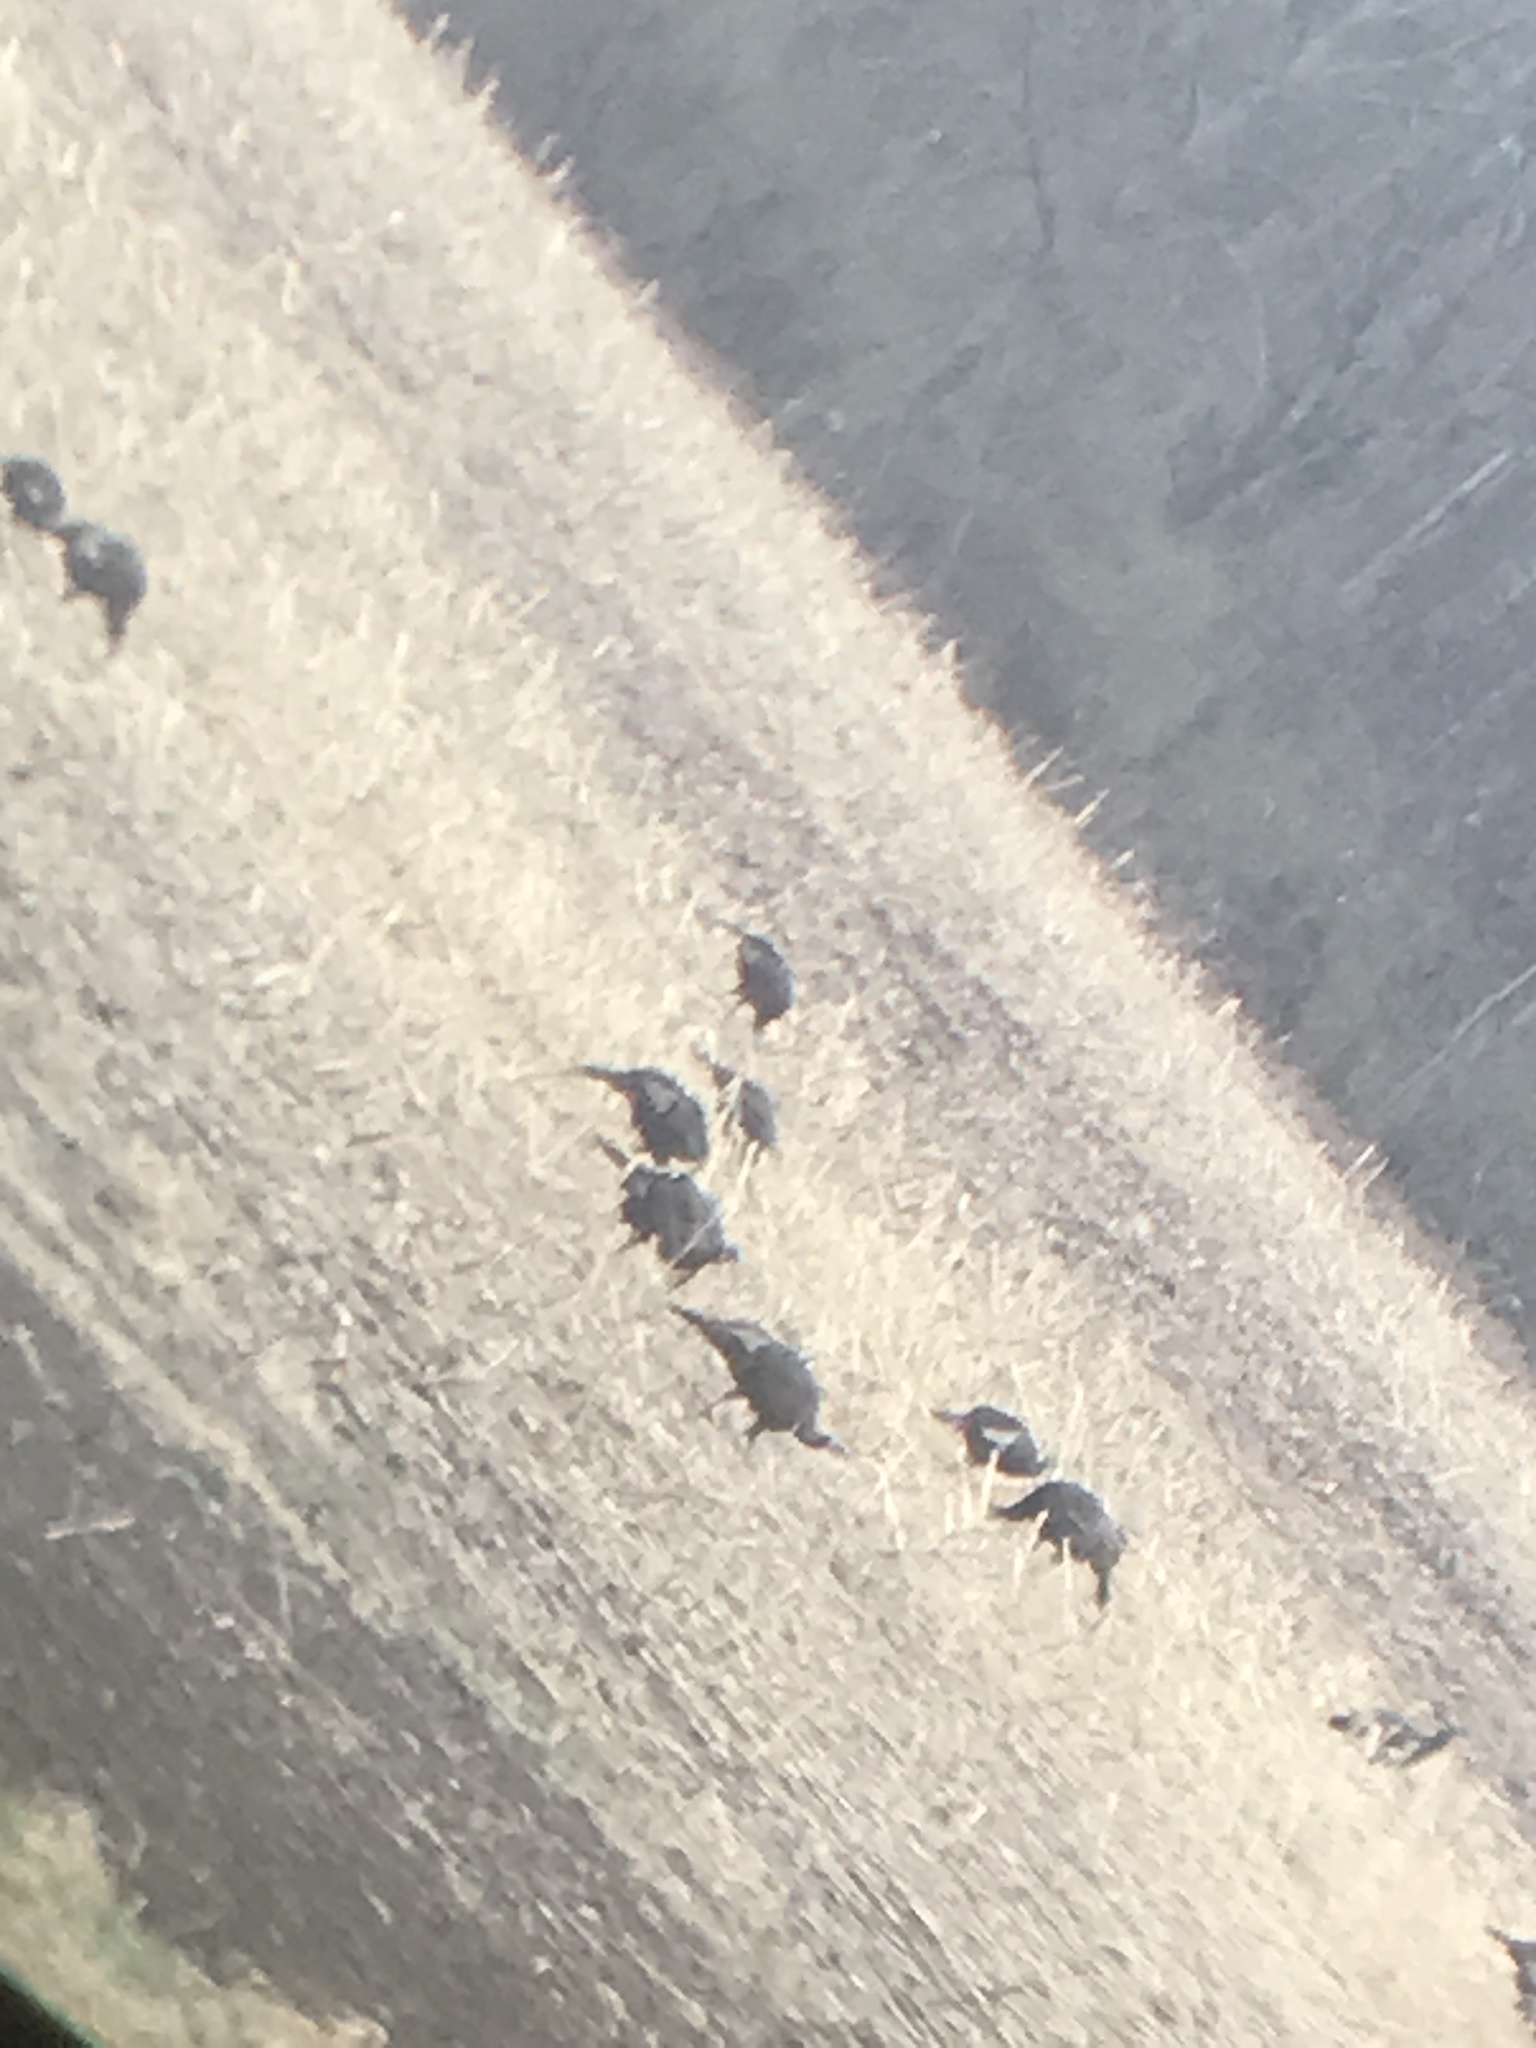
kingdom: Animalia
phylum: Chordata
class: Aves
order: Galliformes
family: Phasianidae
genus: Meleagris
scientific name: Meleagris gallopavo
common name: Wild turkey
